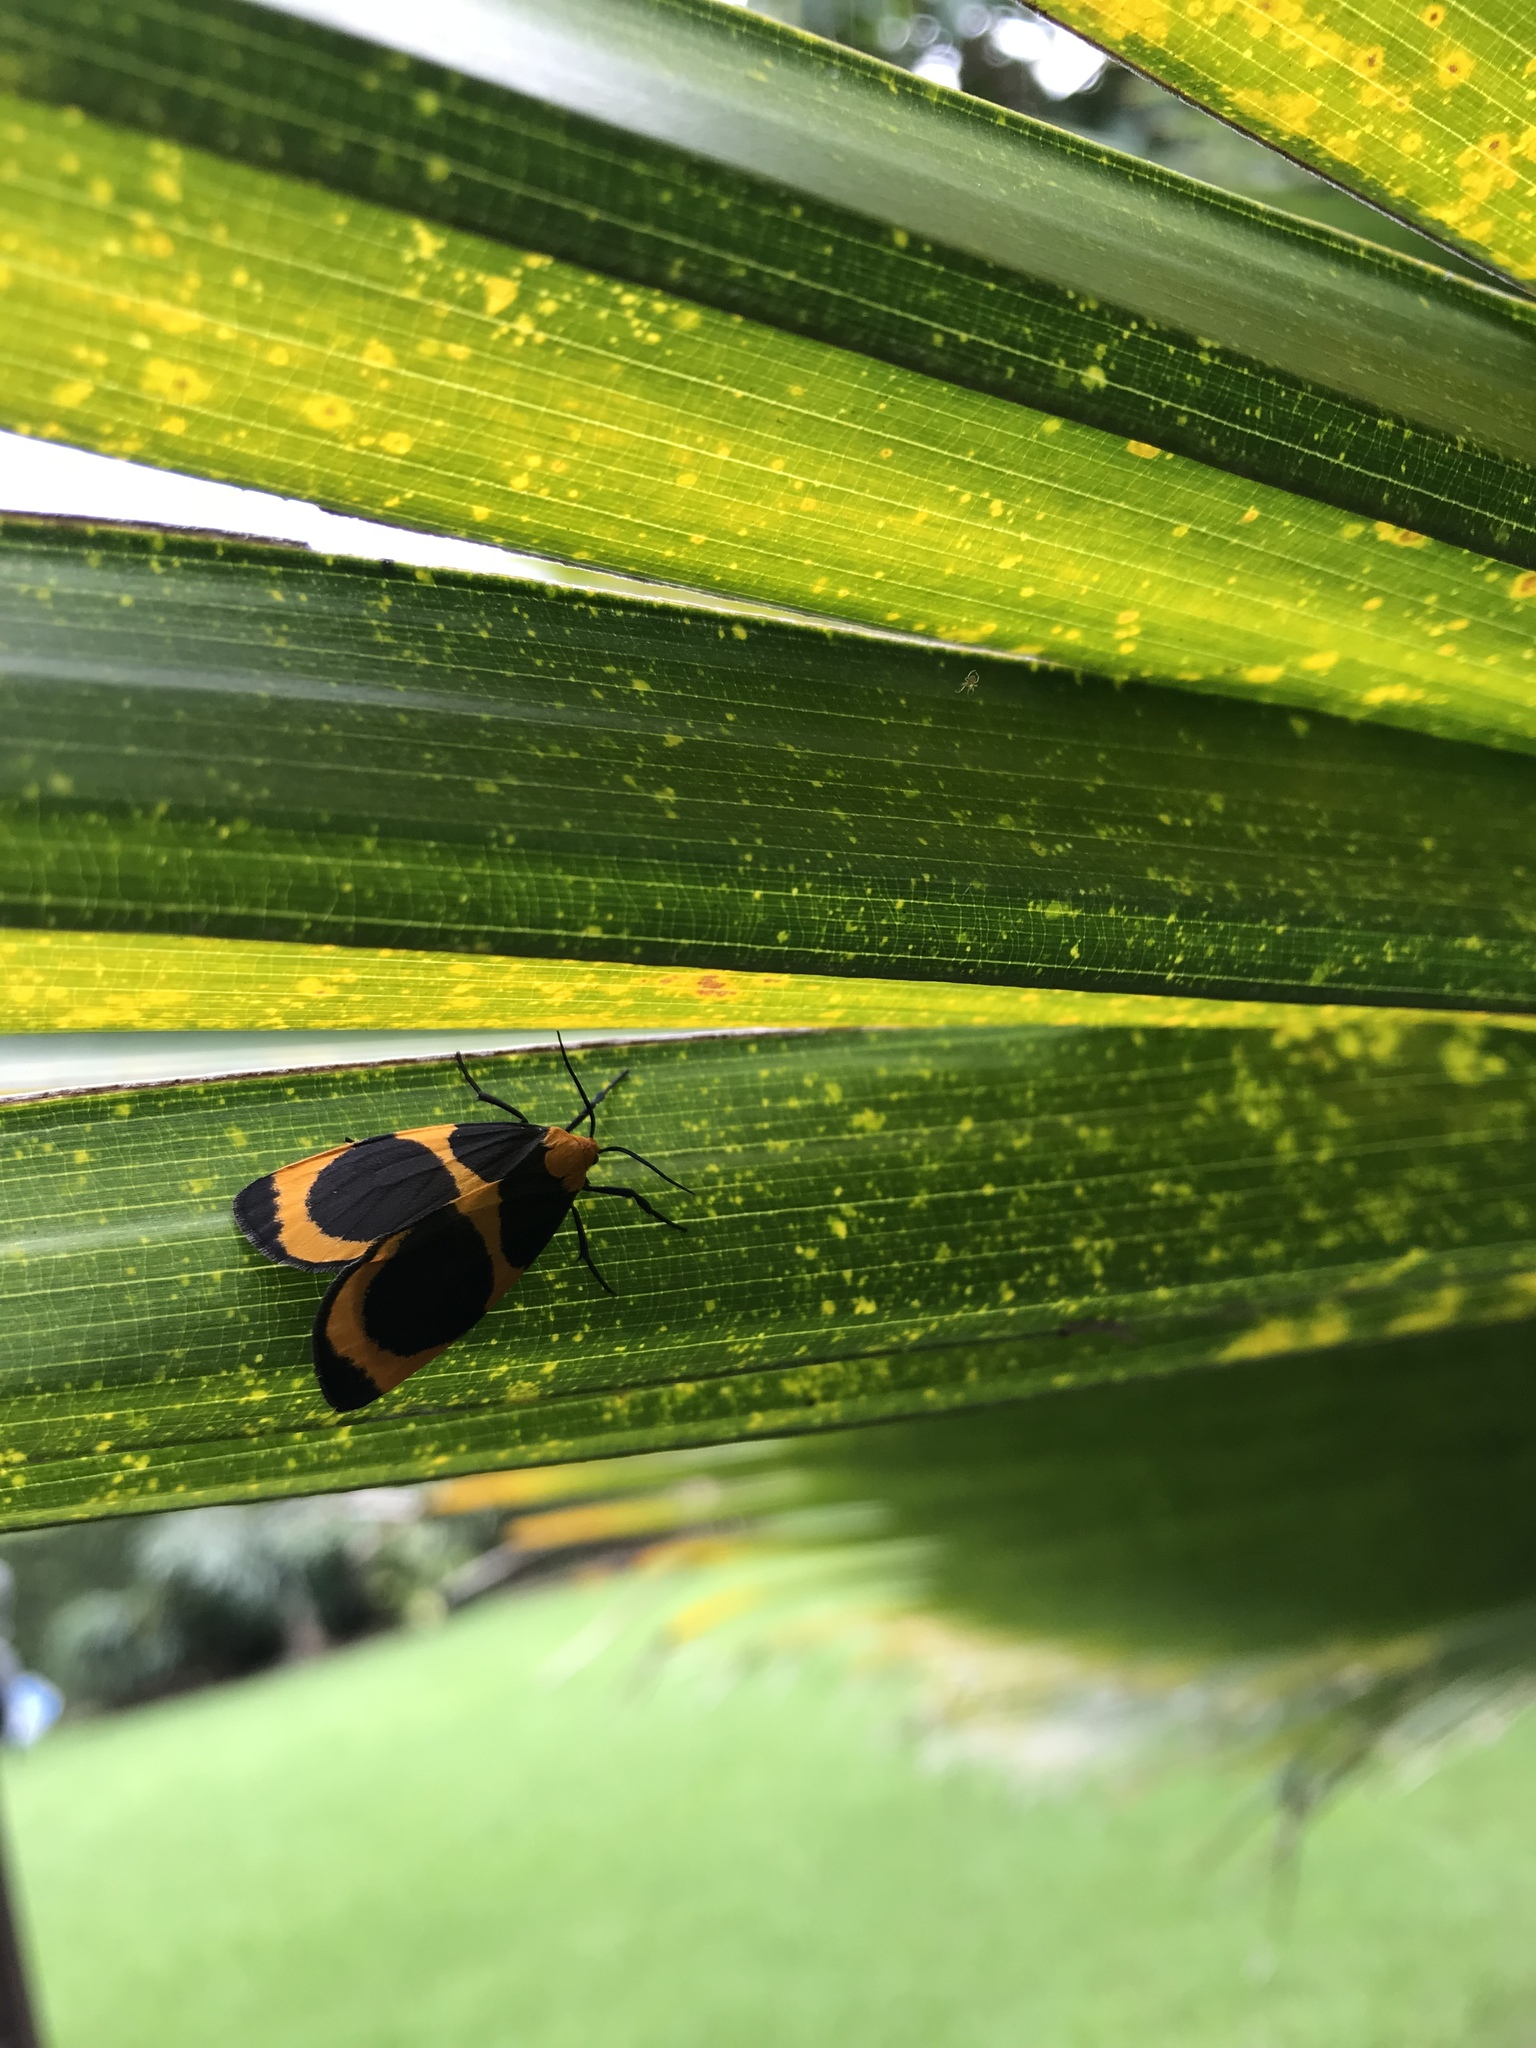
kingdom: Animalia
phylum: Arthropoda
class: Insecta
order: Lepidoptera
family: Erebidae
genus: Eudesmia
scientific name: Eudesmia menea
